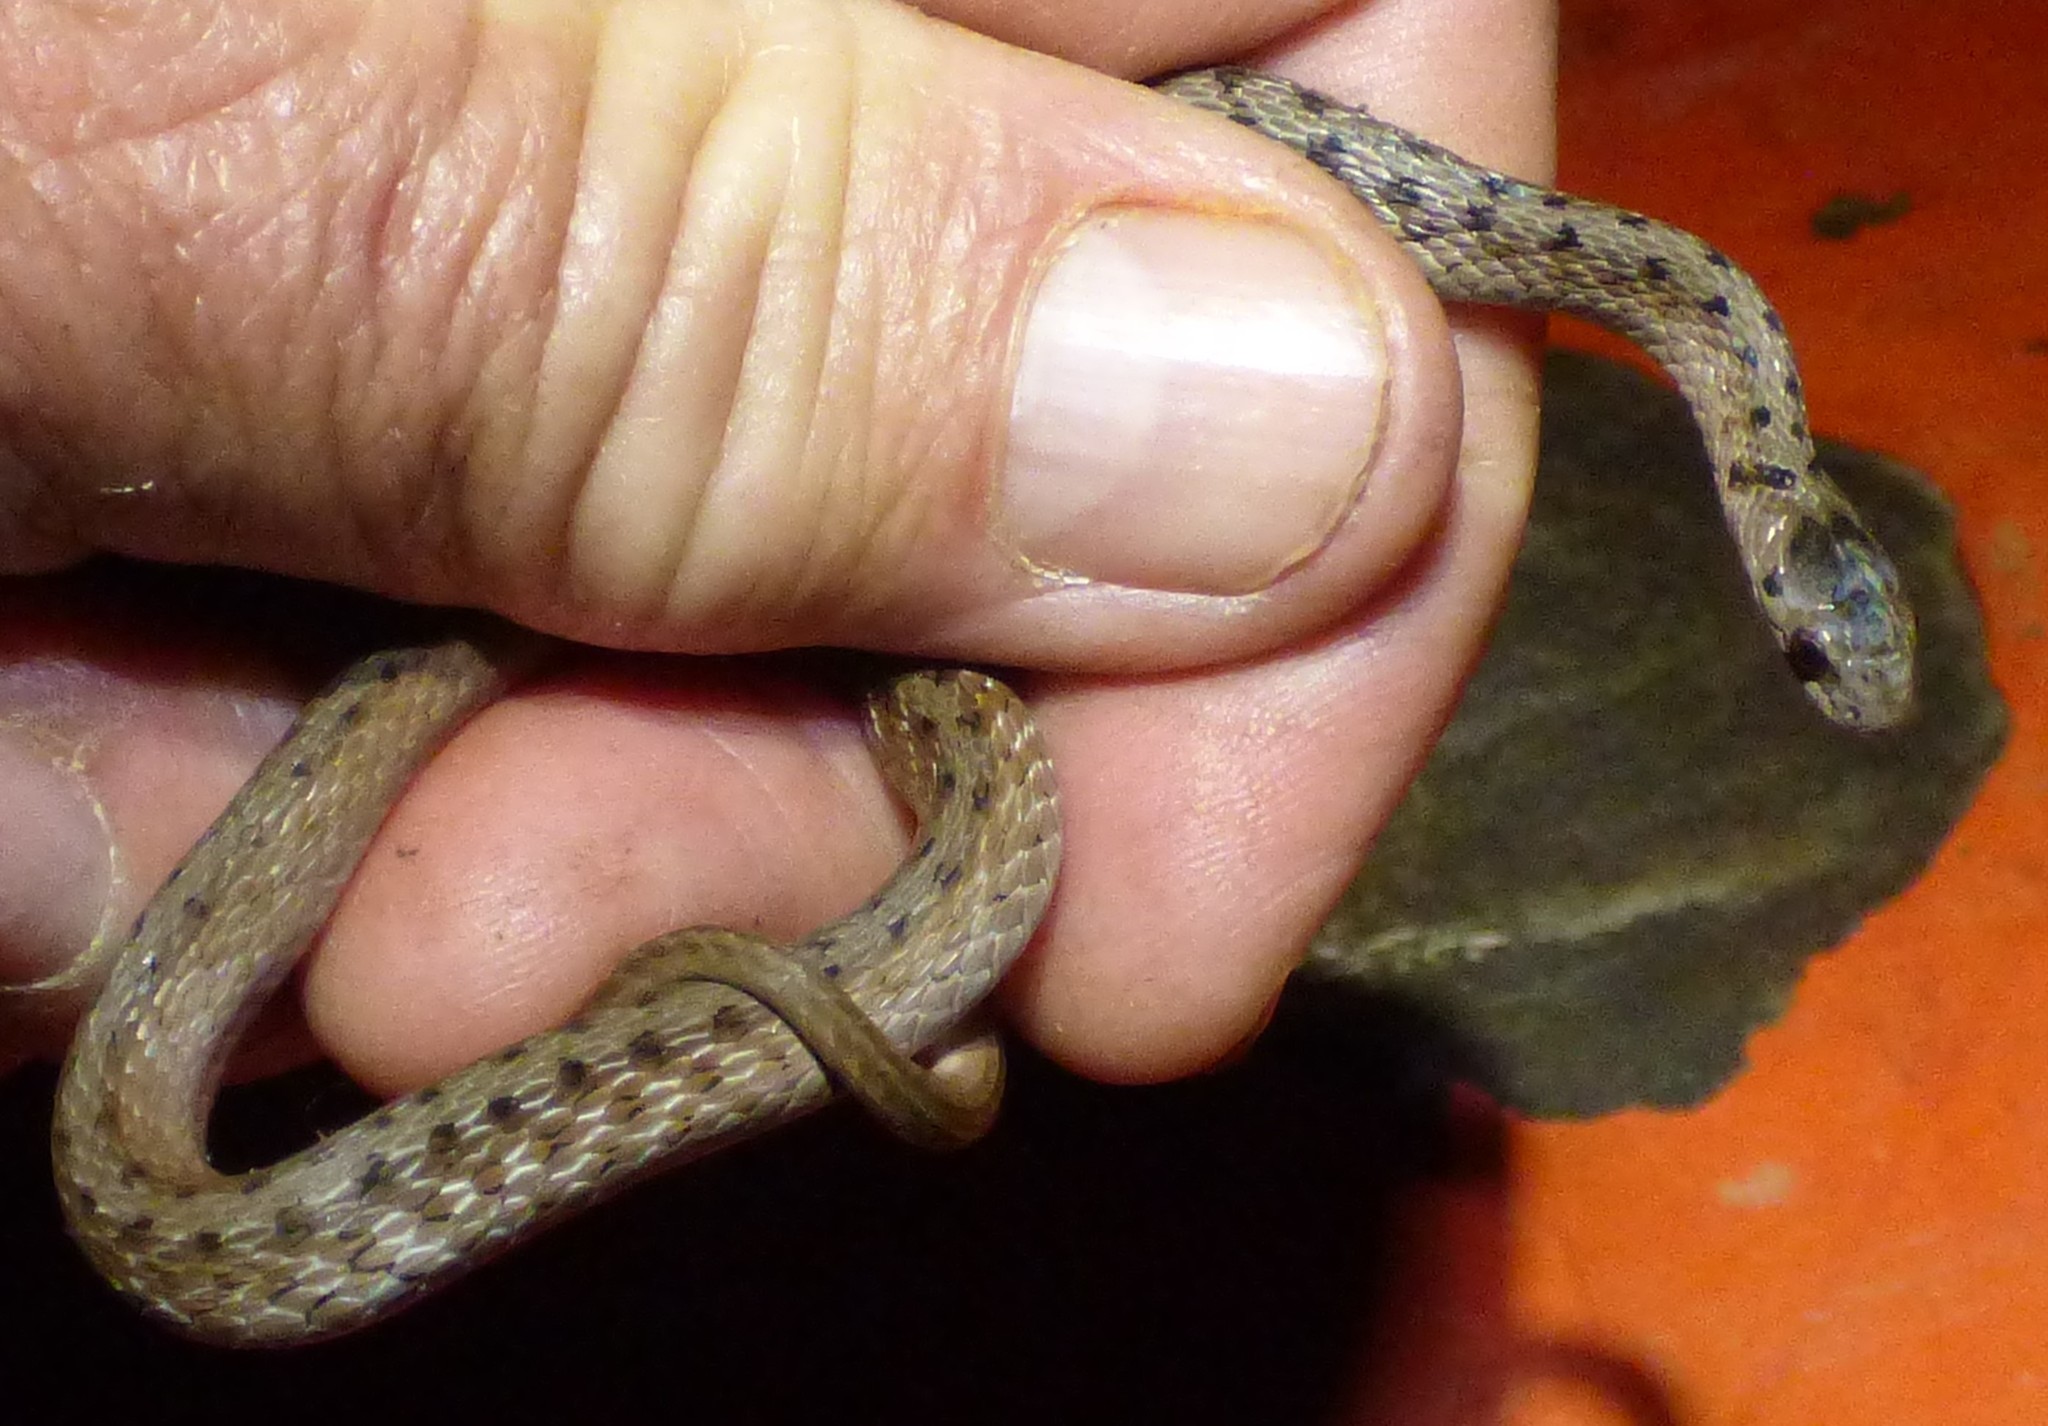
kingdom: Animalia
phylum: Chordata
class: Squamata
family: Colubridae
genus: Storeria
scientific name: Storeria dekayi
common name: (dekay’s) brown snake
